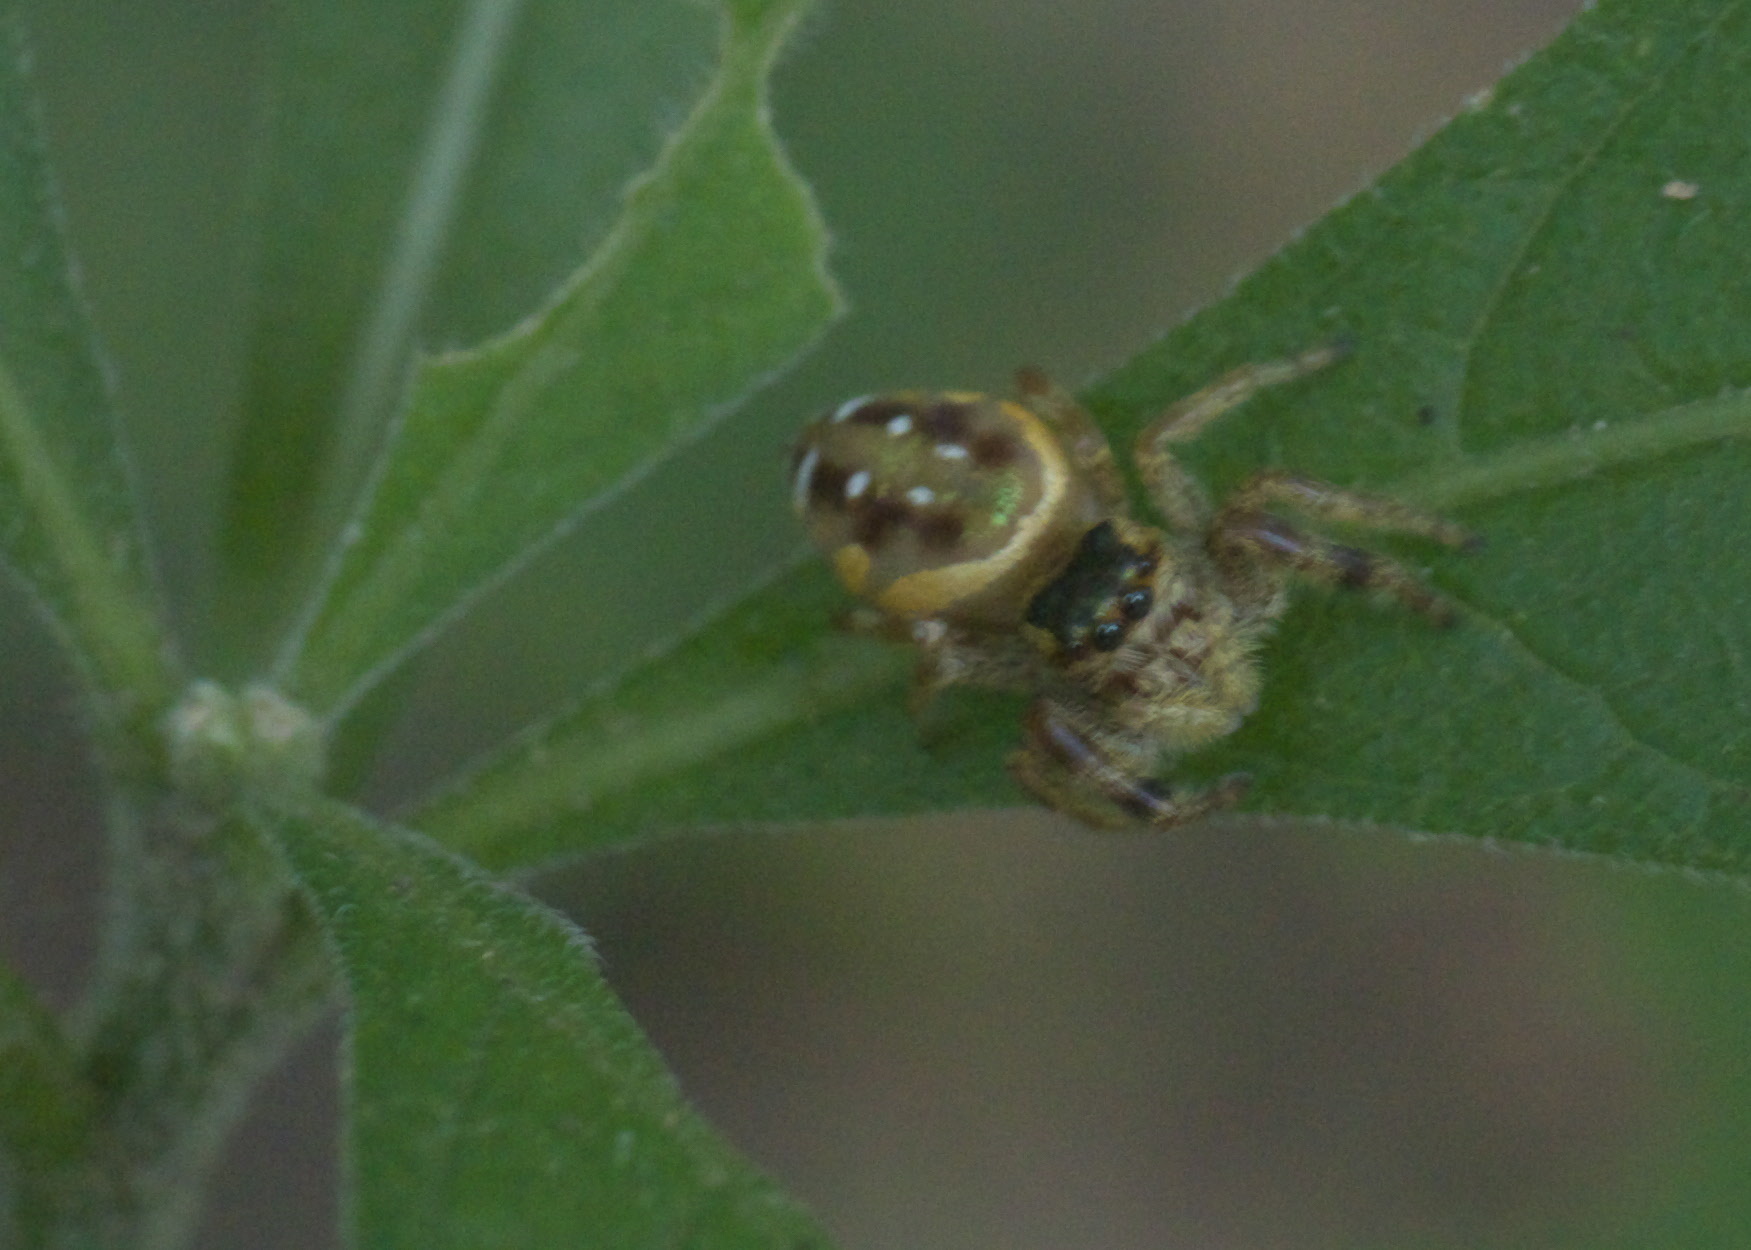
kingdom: Animalia
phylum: Arthropoda
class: Arachnida
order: Araneae
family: Salticidae
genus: Paraphidippus
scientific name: Paraphidippus aurantius
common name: Jumping spiders
